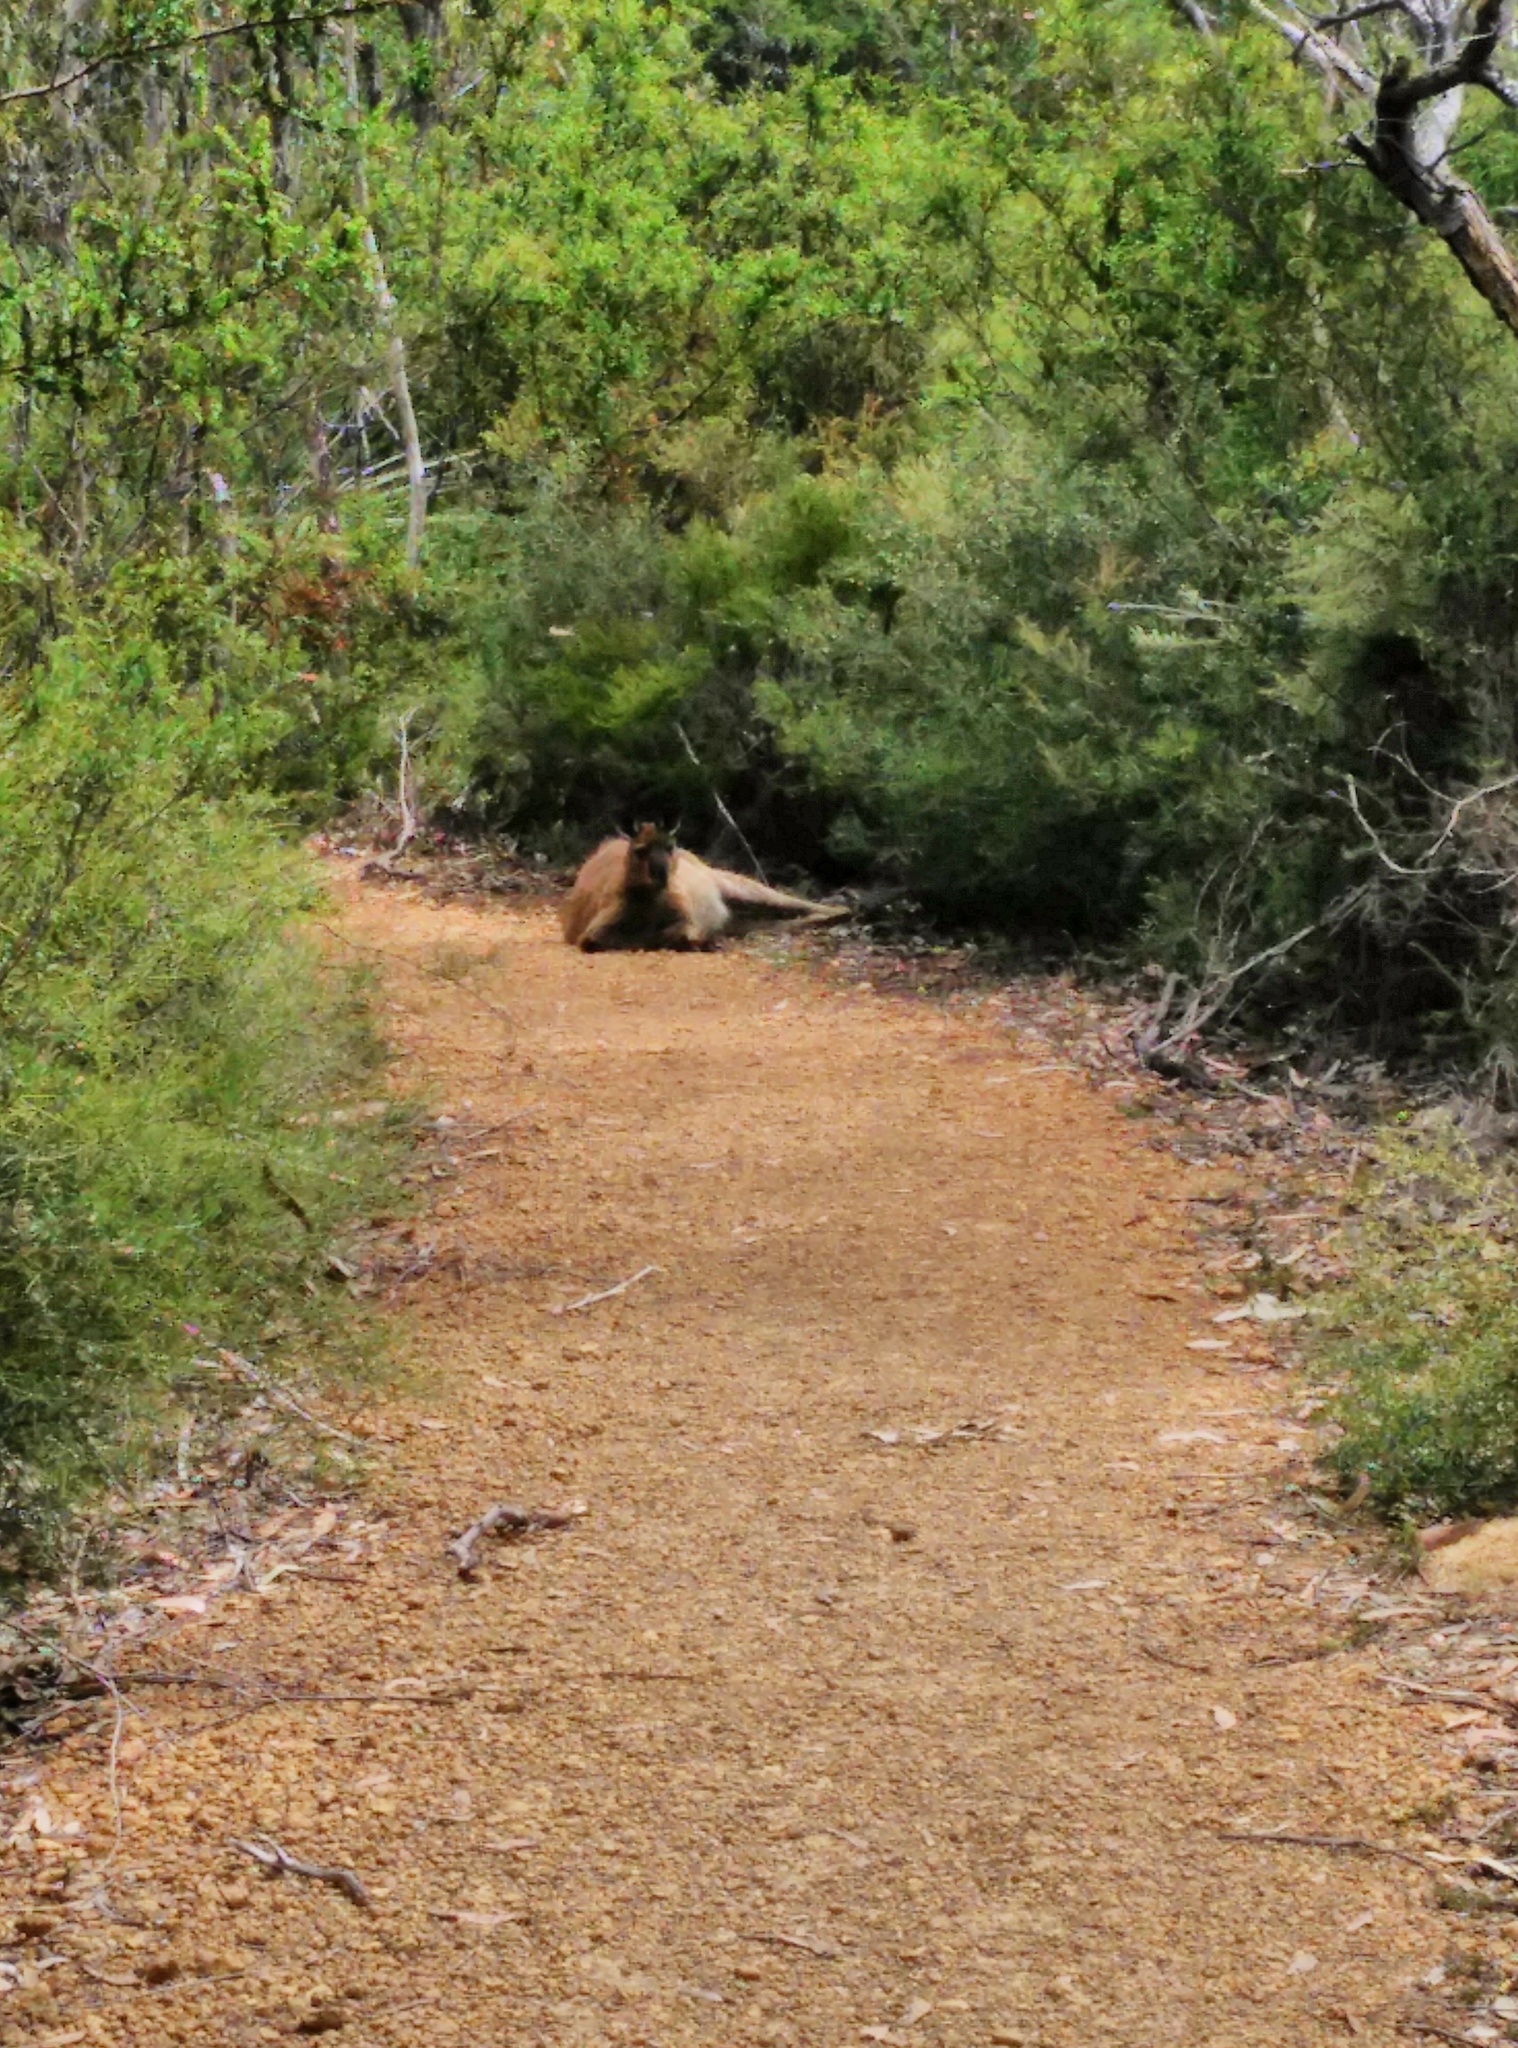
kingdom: Animalia
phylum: Chordata
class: Mammalia
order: Diprotodontia
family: Macropodidae
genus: Macropus
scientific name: Macropus fuliginosus
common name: Western grey kangaroo
